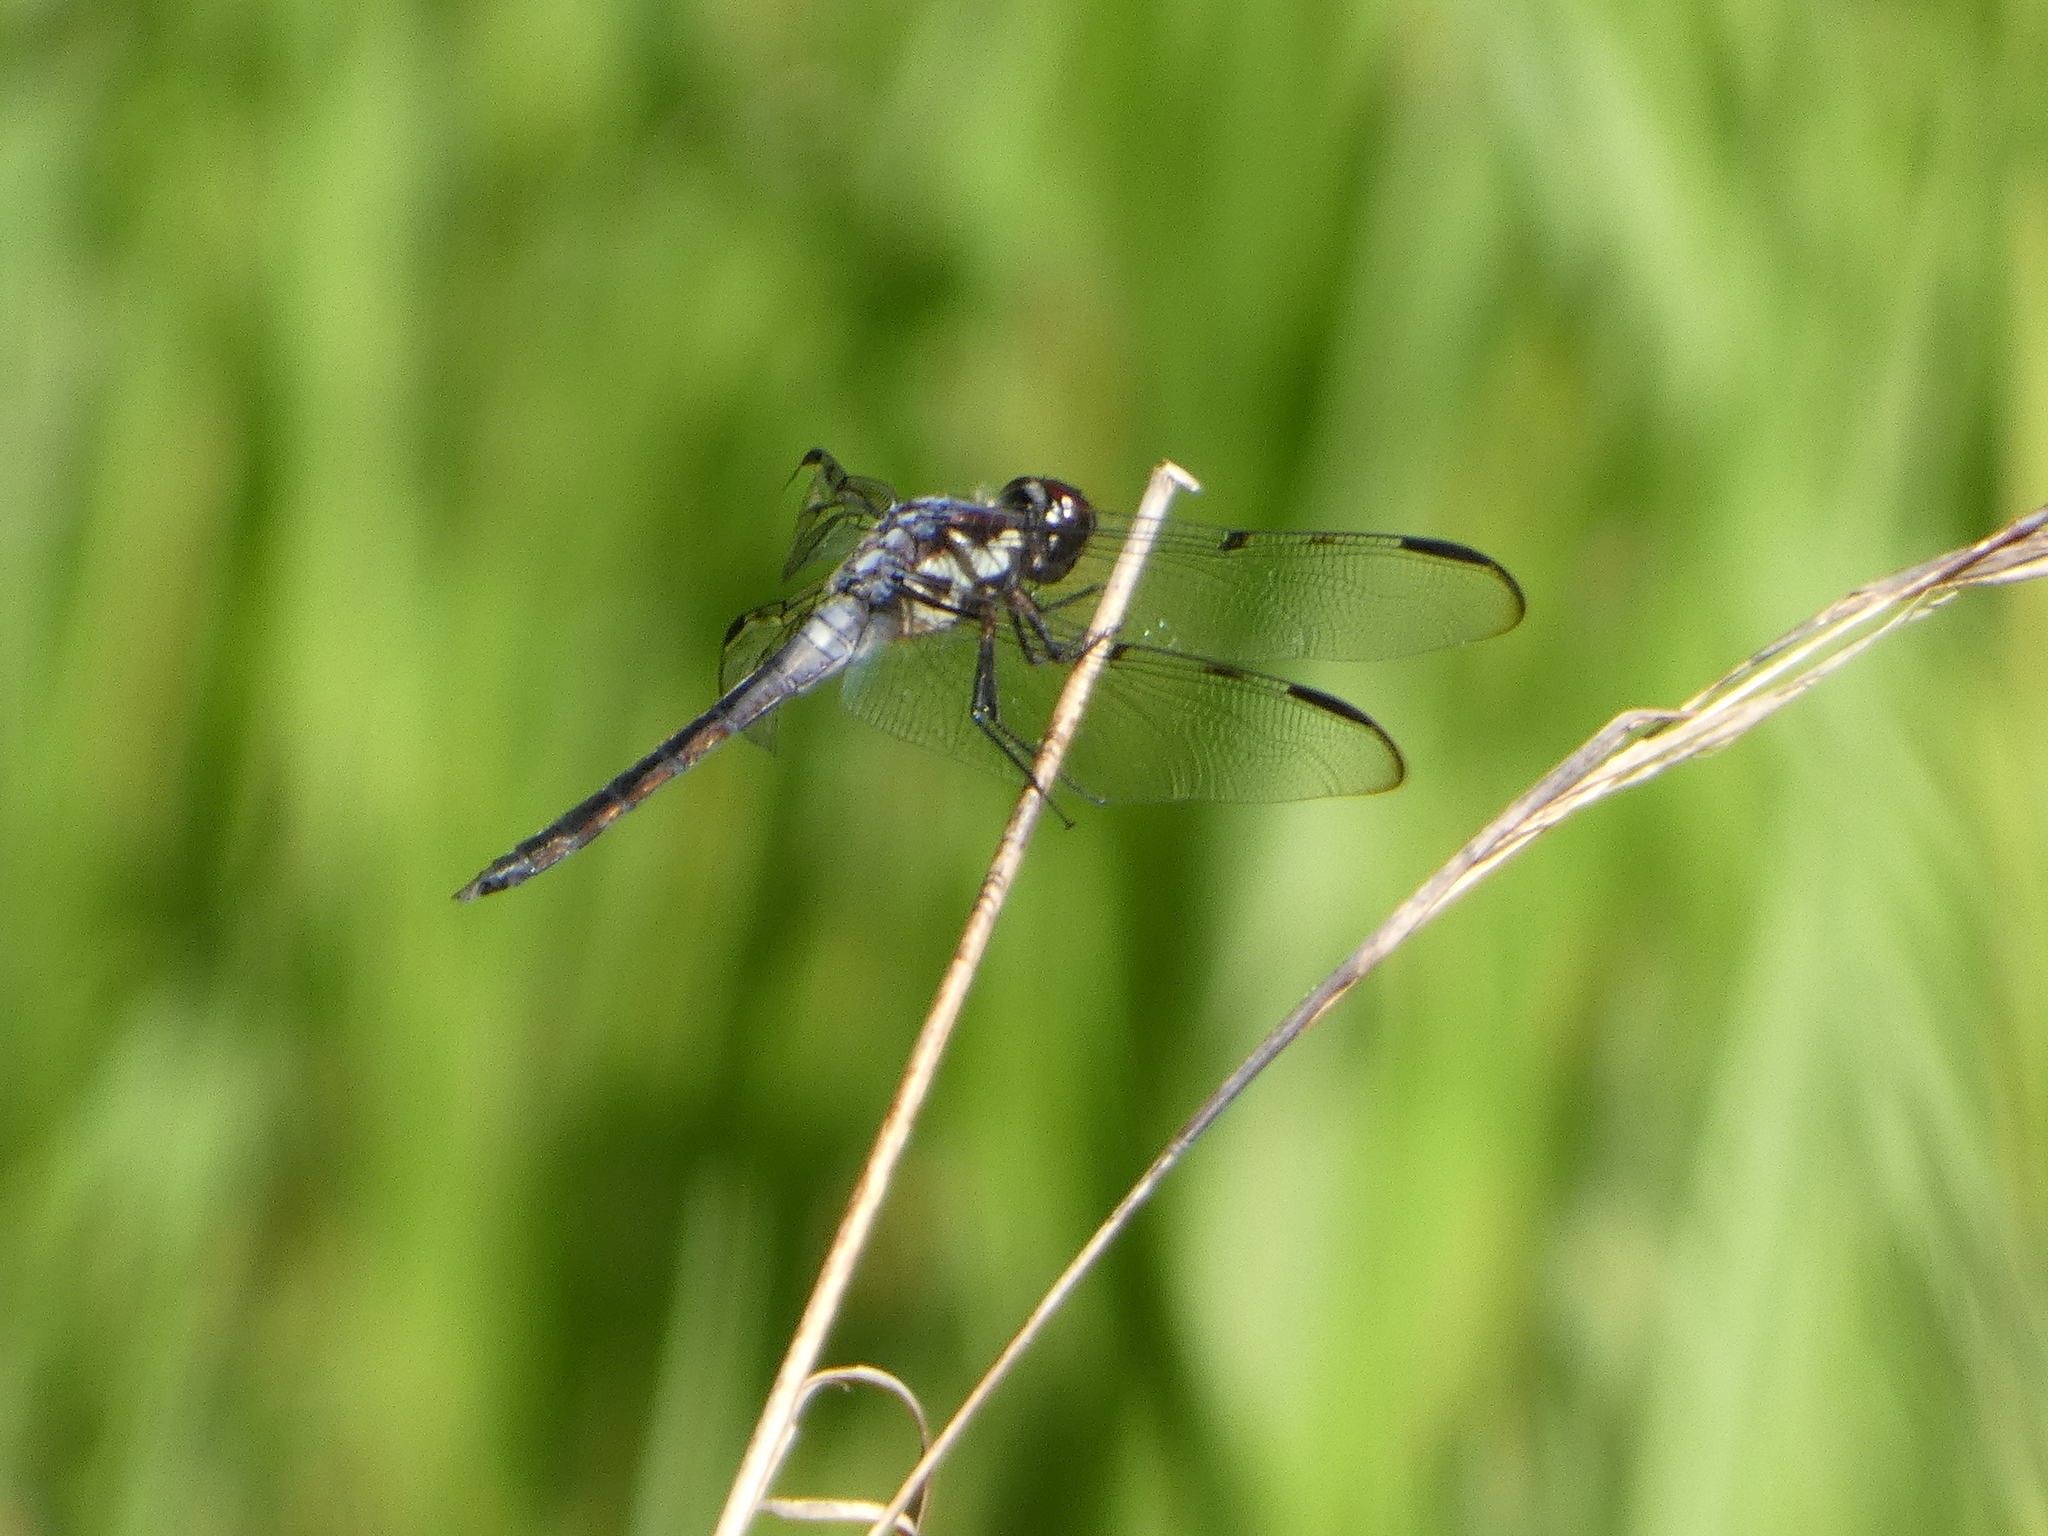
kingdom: Animalia
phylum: Arthropoda
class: Insecta
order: Odonata
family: Libellulidae
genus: Libellula
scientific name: Libellula axilena
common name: Bar-winged skimmer
